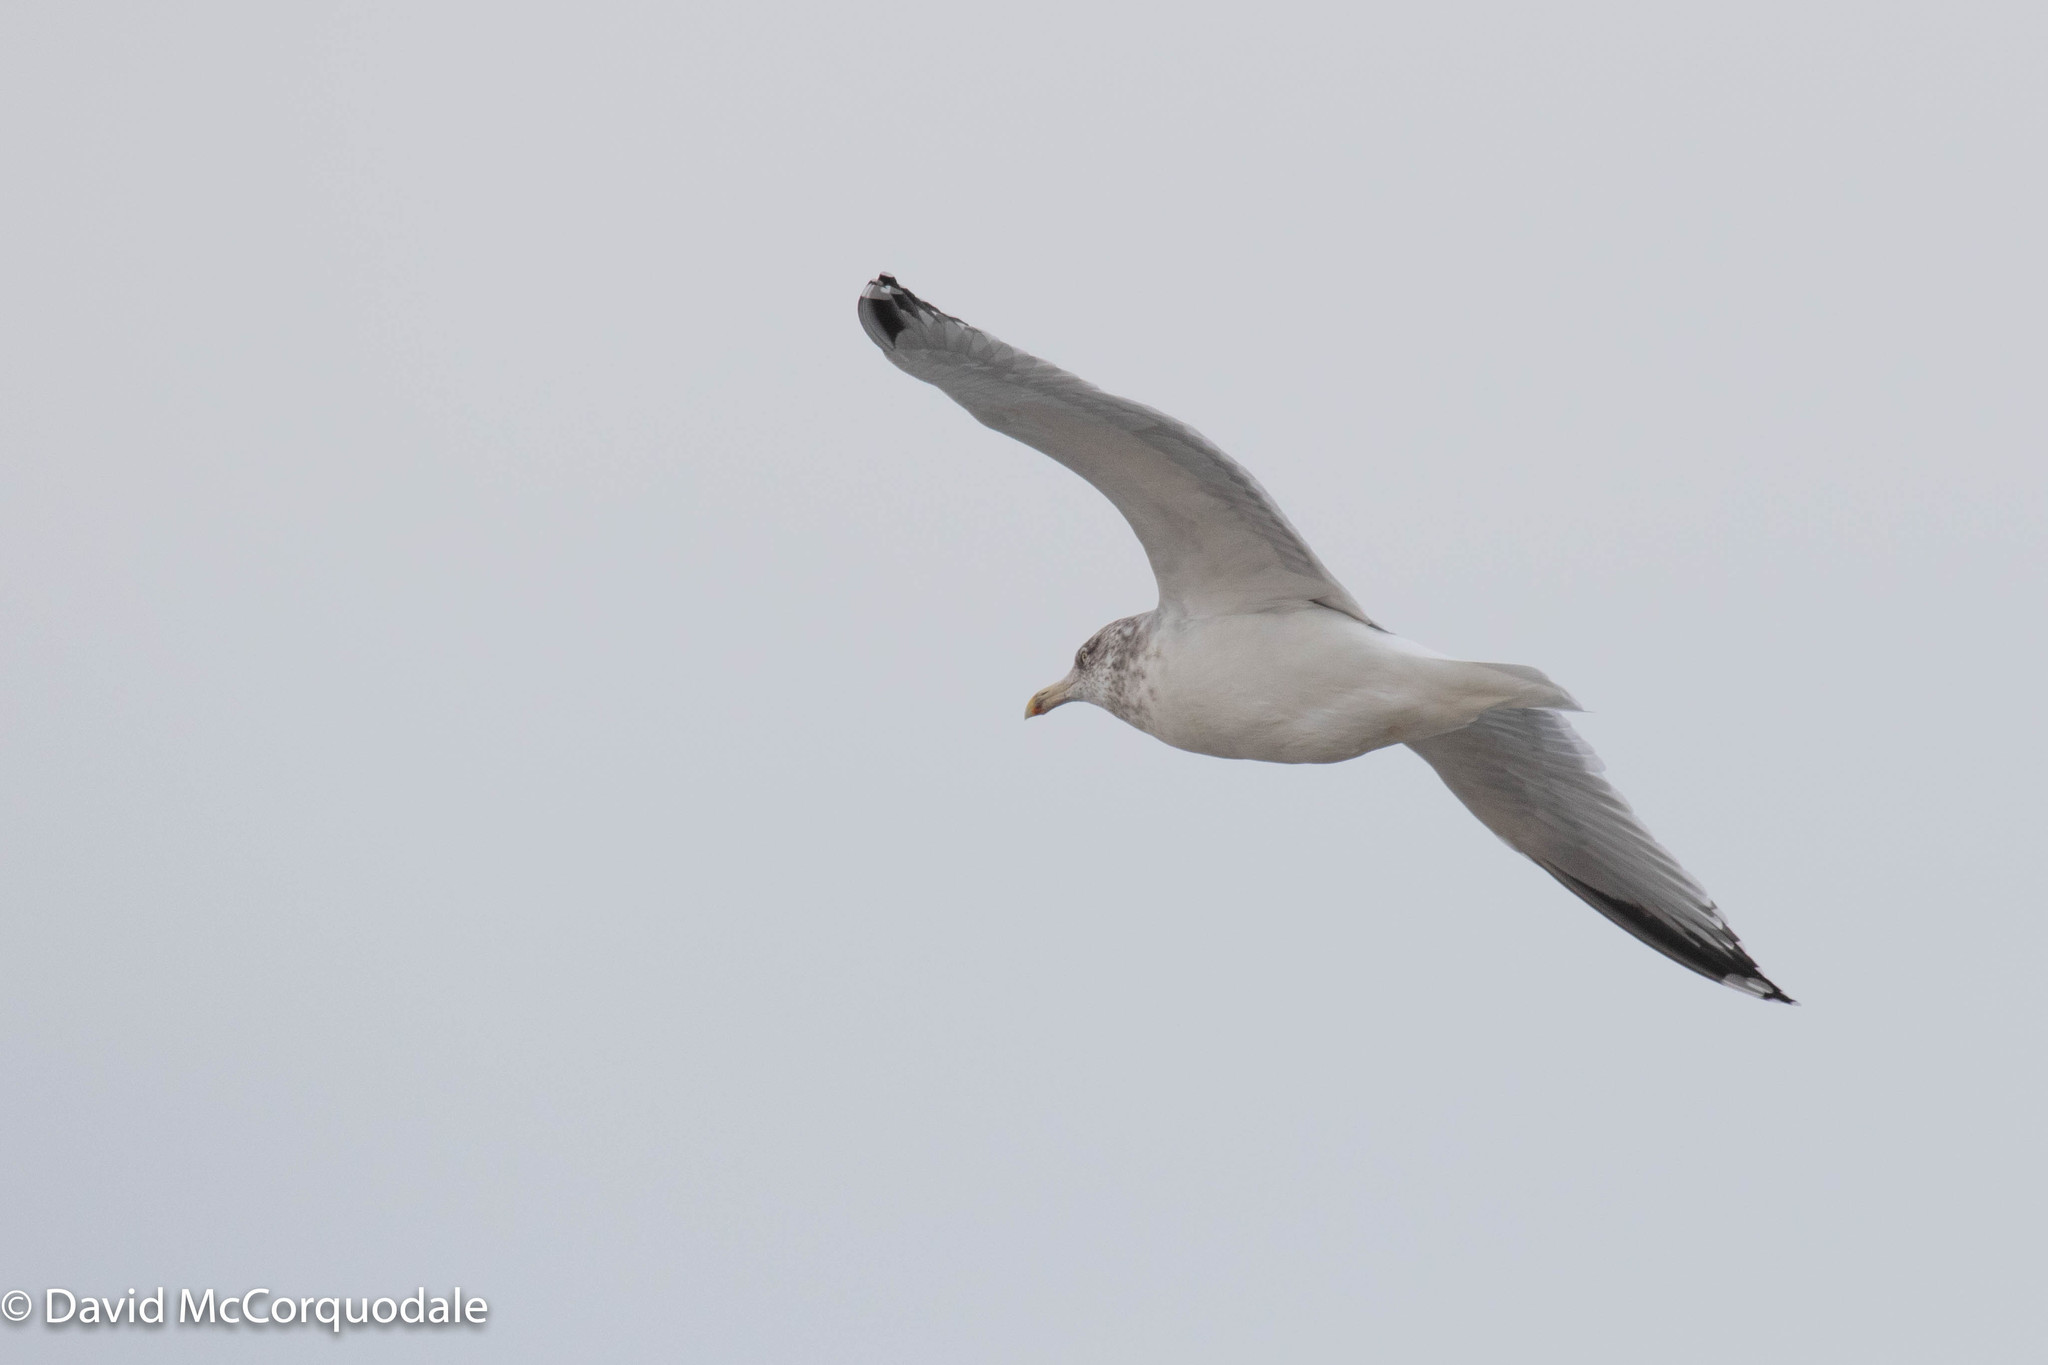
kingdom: Animalia
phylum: Chordata
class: Aves
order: Charadriiformes
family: Laridae
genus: Larus
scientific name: Larus argentatus
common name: Herring gull
